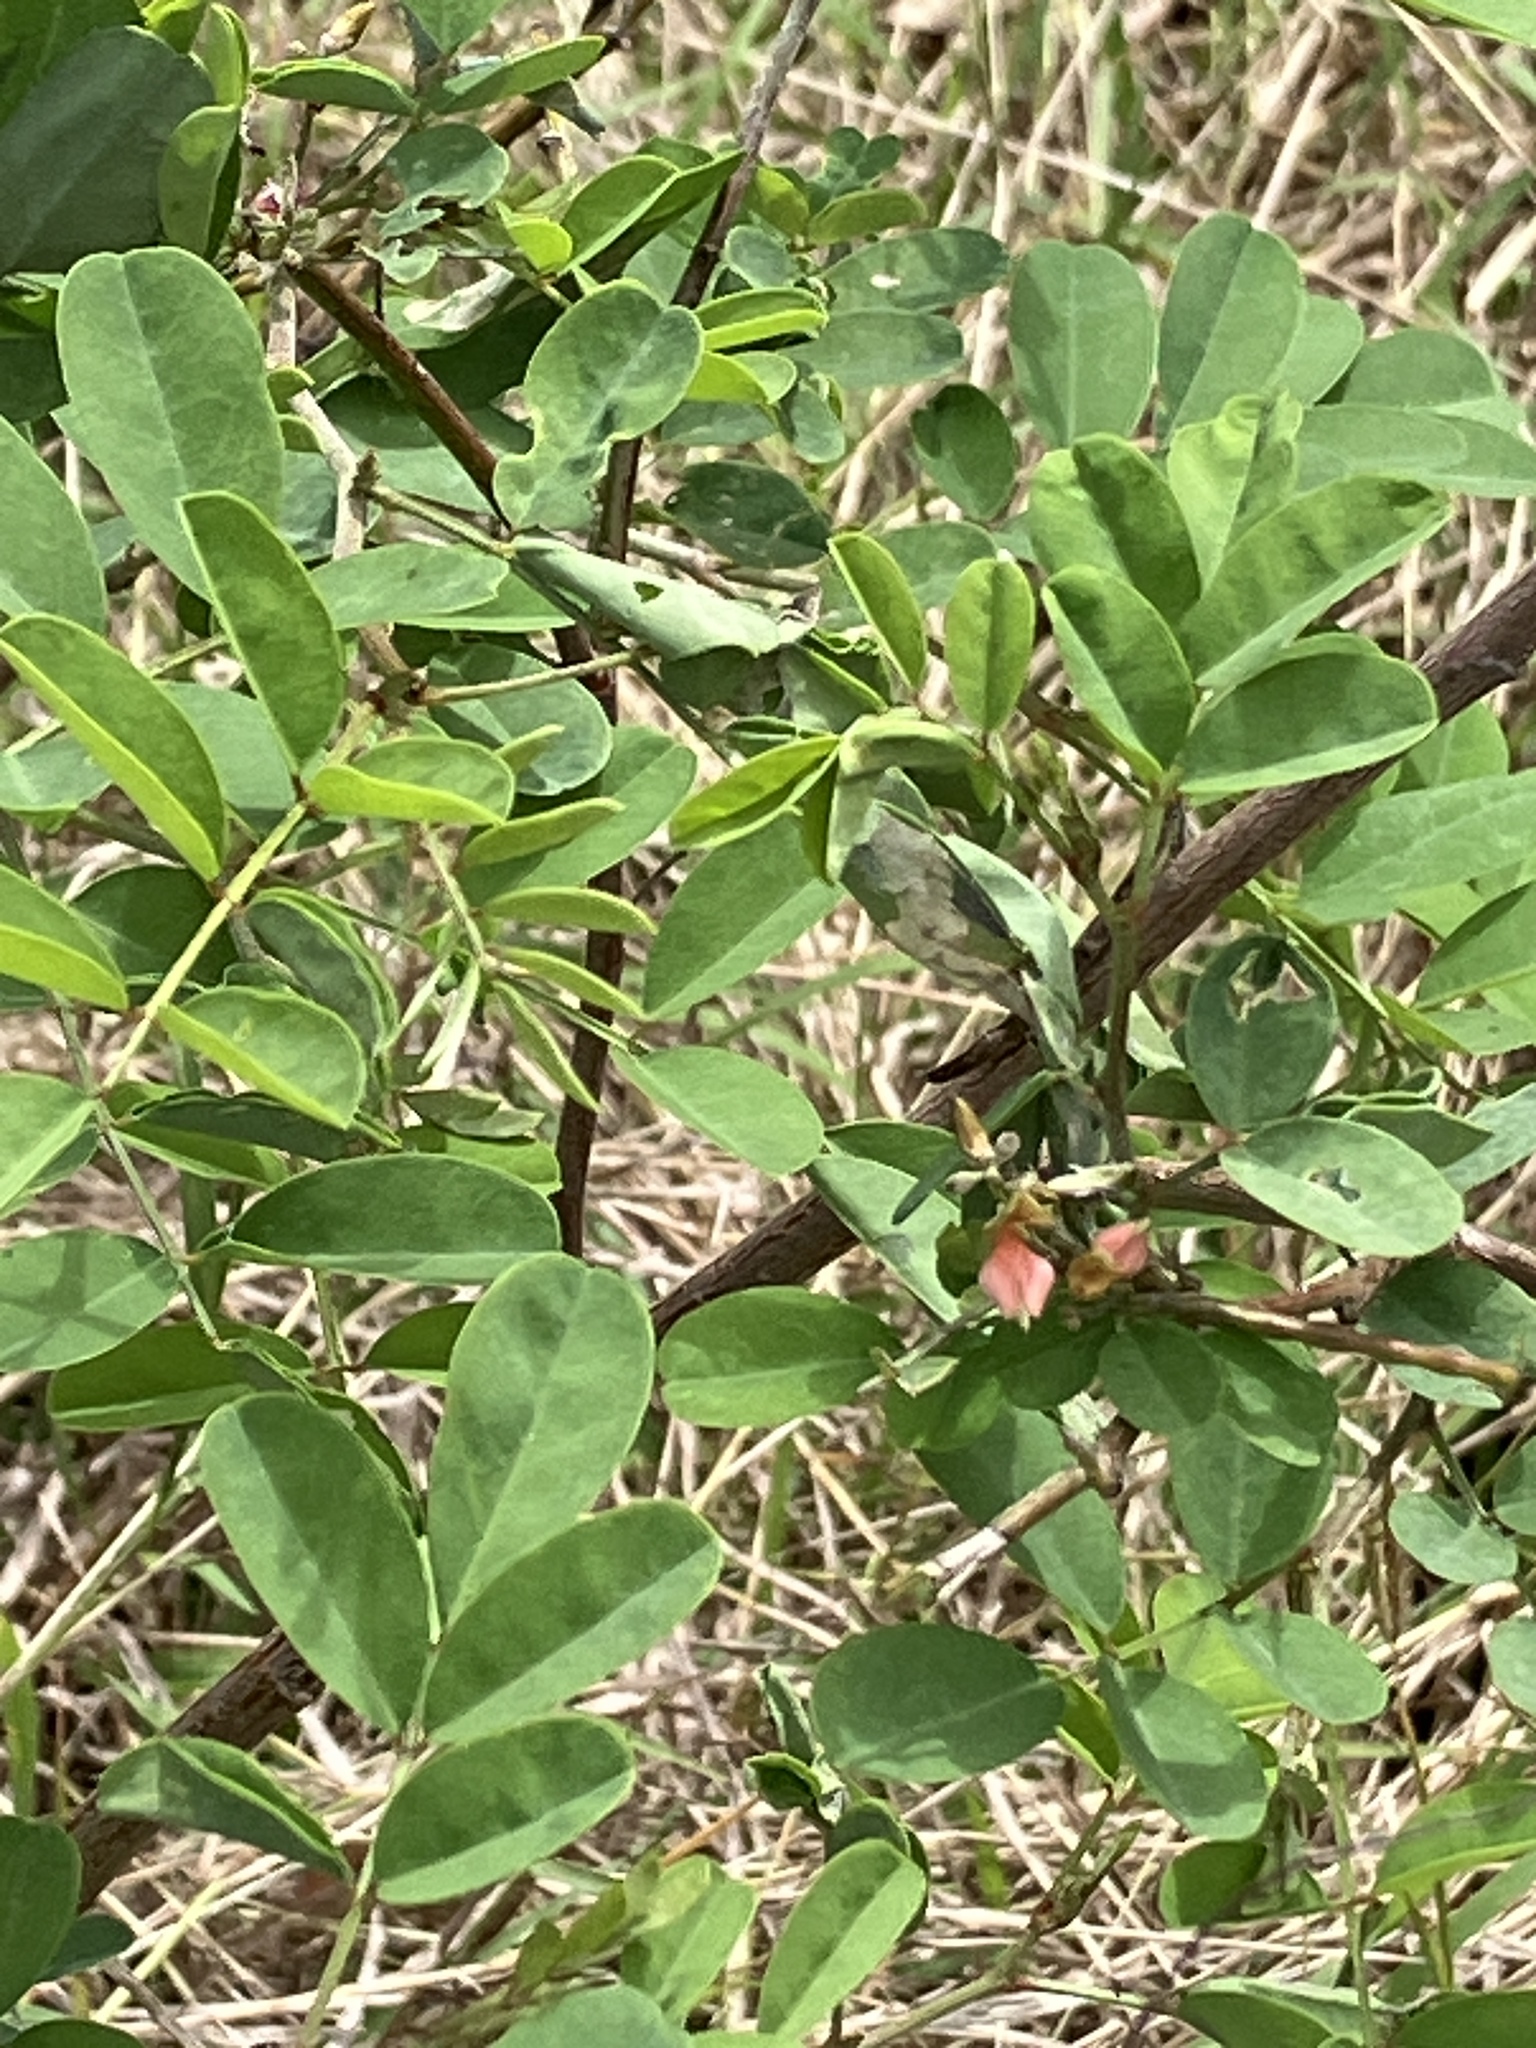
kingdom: Plantae
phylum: Tracheophyta
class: Magnoliopsida
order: Fabales
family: Fabaceae
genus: Indigofera
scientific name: Indigofera tinctoria
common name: True indigo
